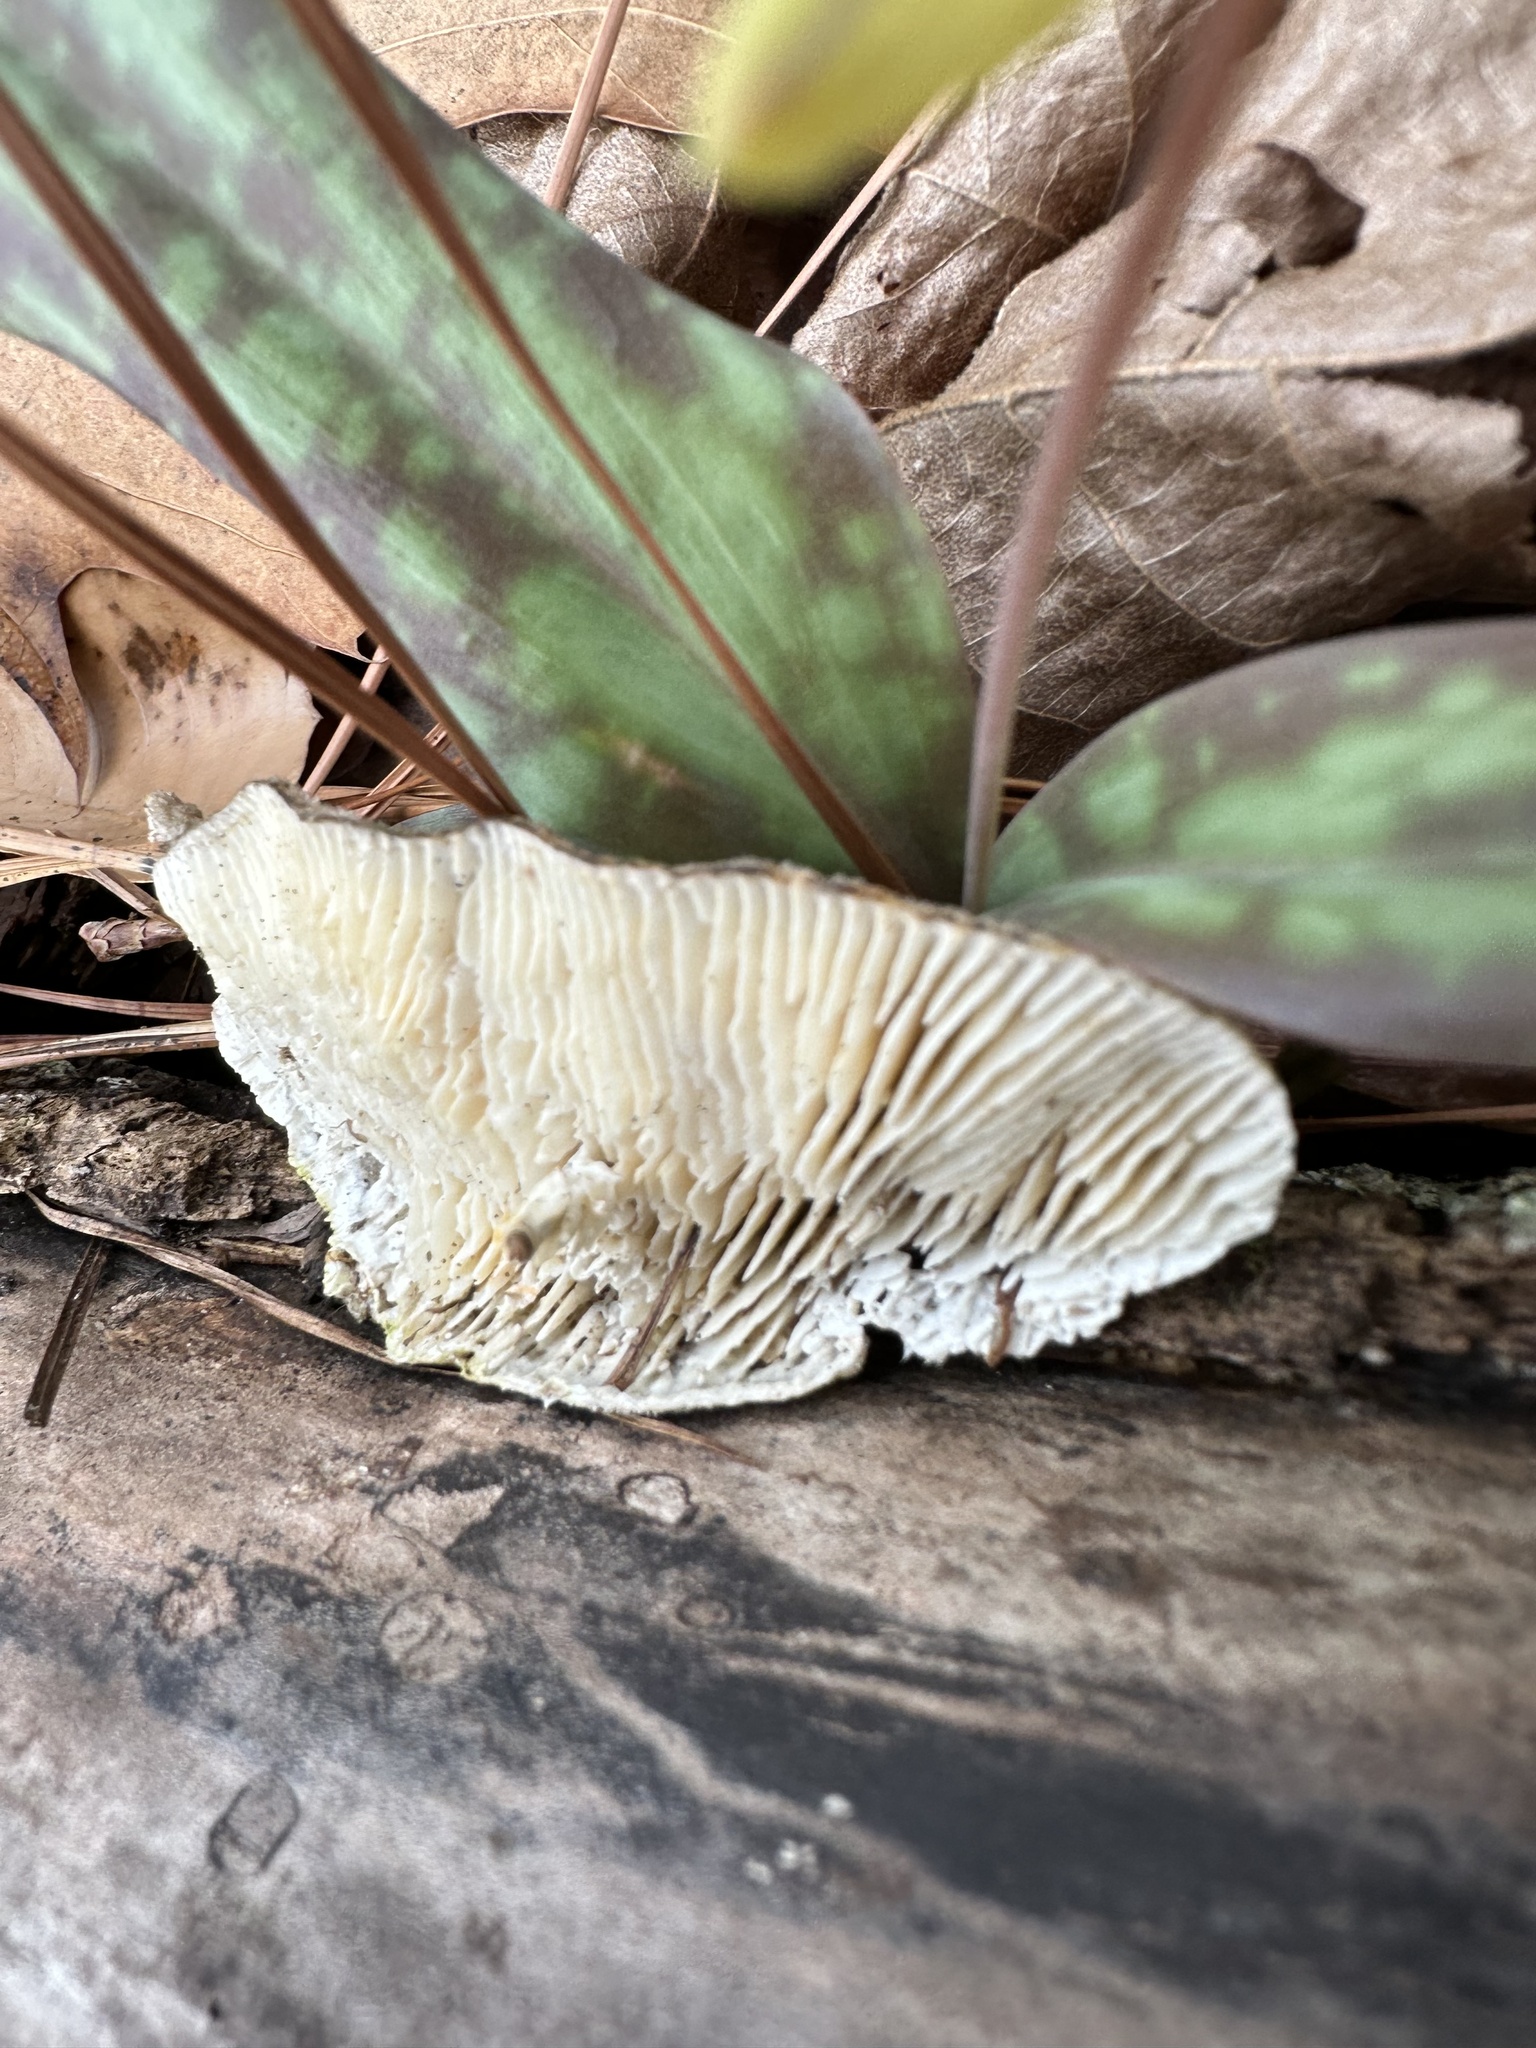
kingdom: Fungi
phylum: Basidiomycota
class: Agaricomycetes
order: Polyporales
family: Polyporaceae
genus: Lenzites
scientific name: Lenzites betulinus
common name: Birch mazegill
